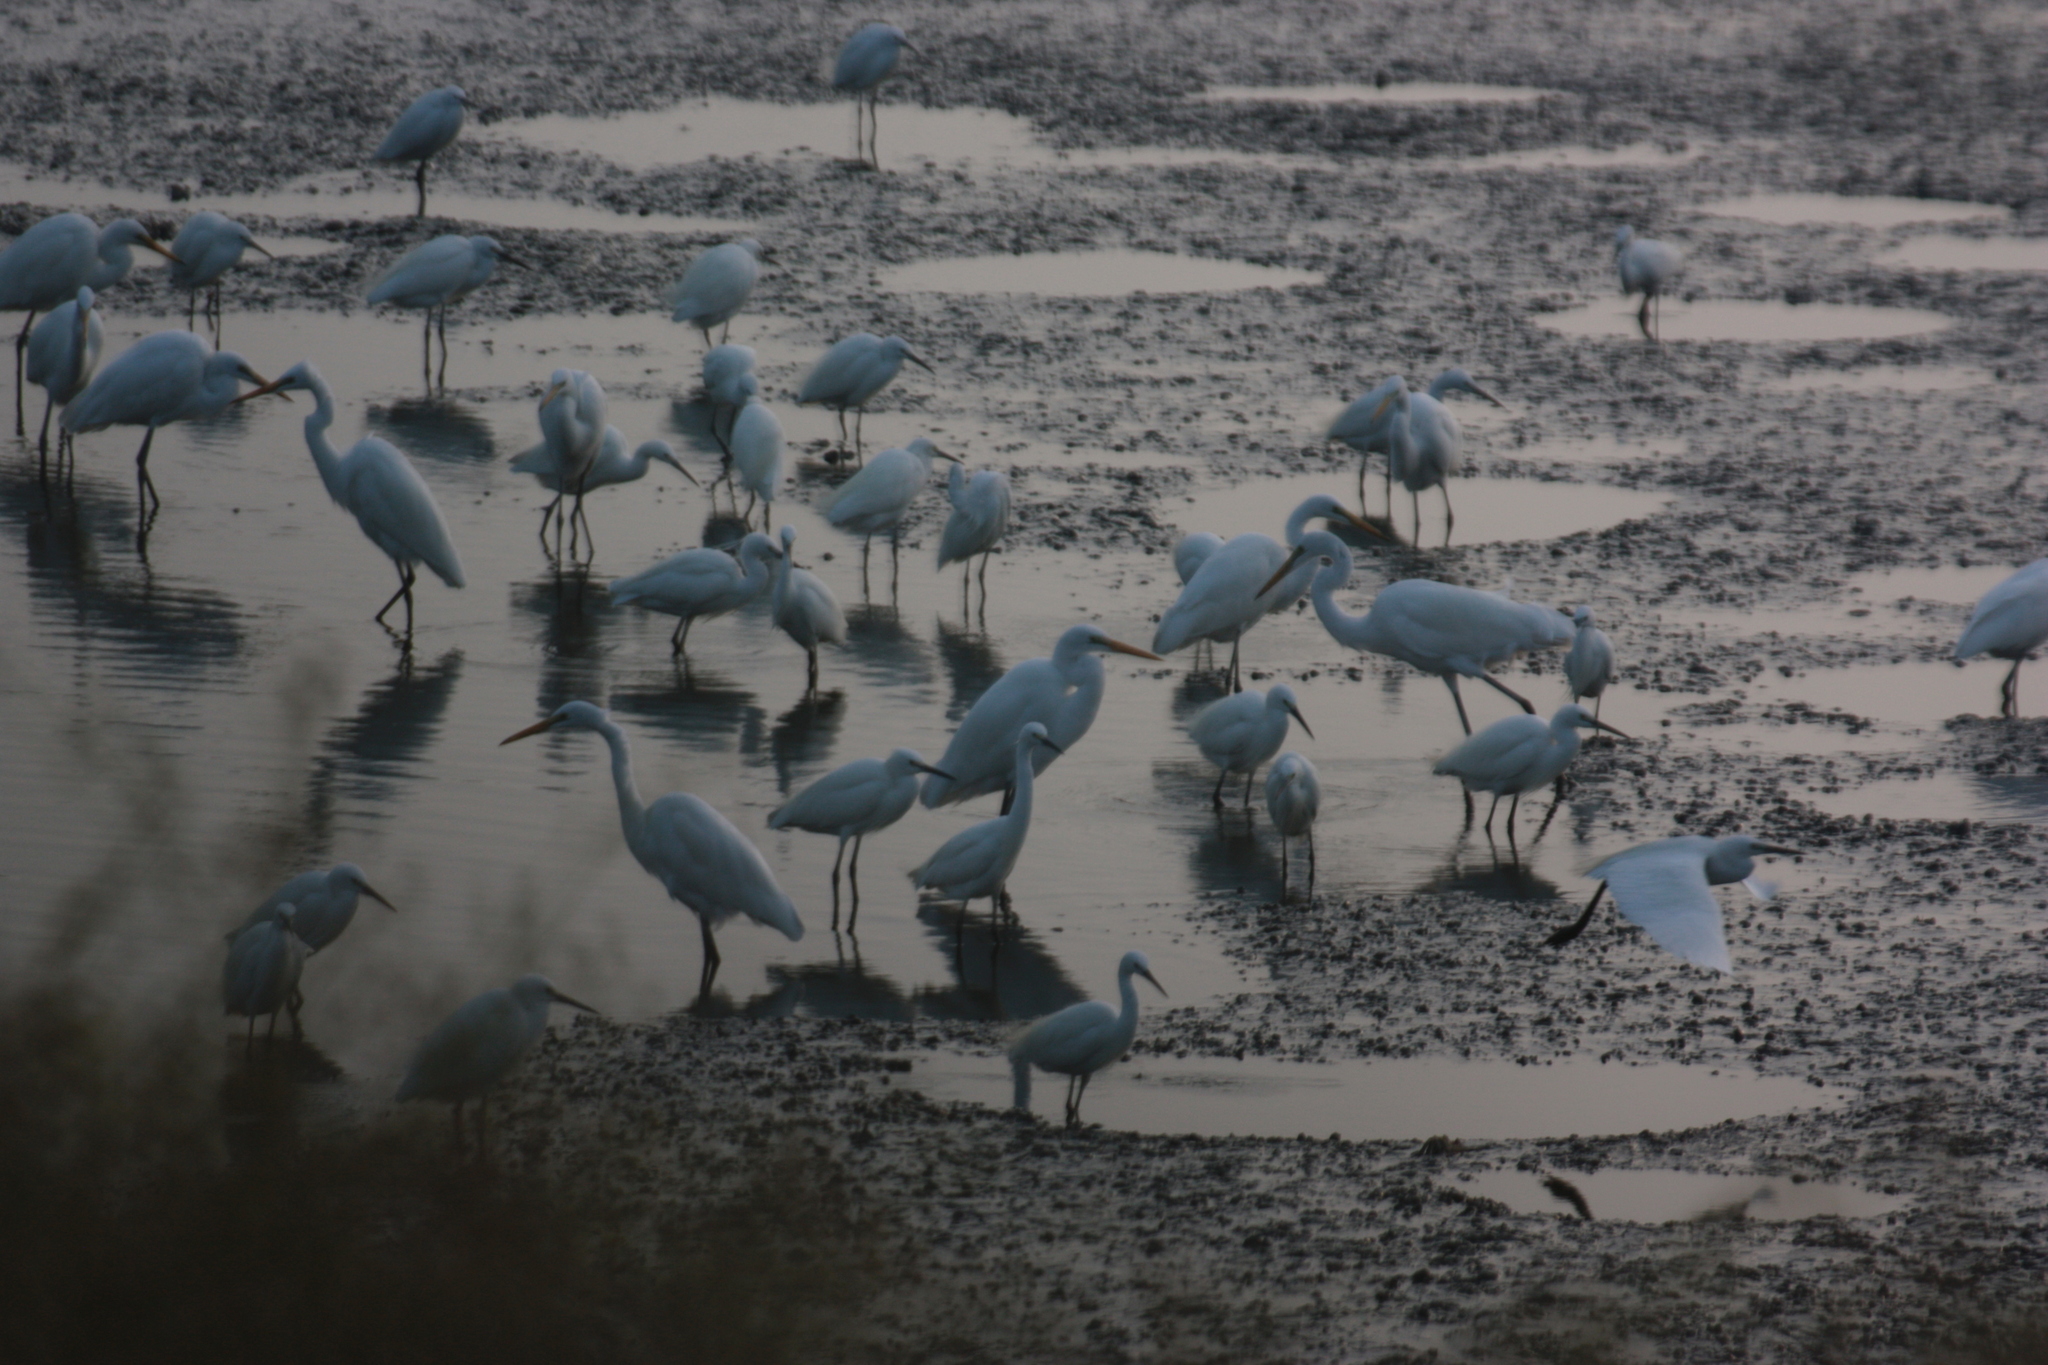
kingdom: Animalia
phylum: Chordata
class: Aves
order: Pelecaniformes
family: Ardeidae
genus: Ardea
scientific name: Ardea alba
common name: Great egret
